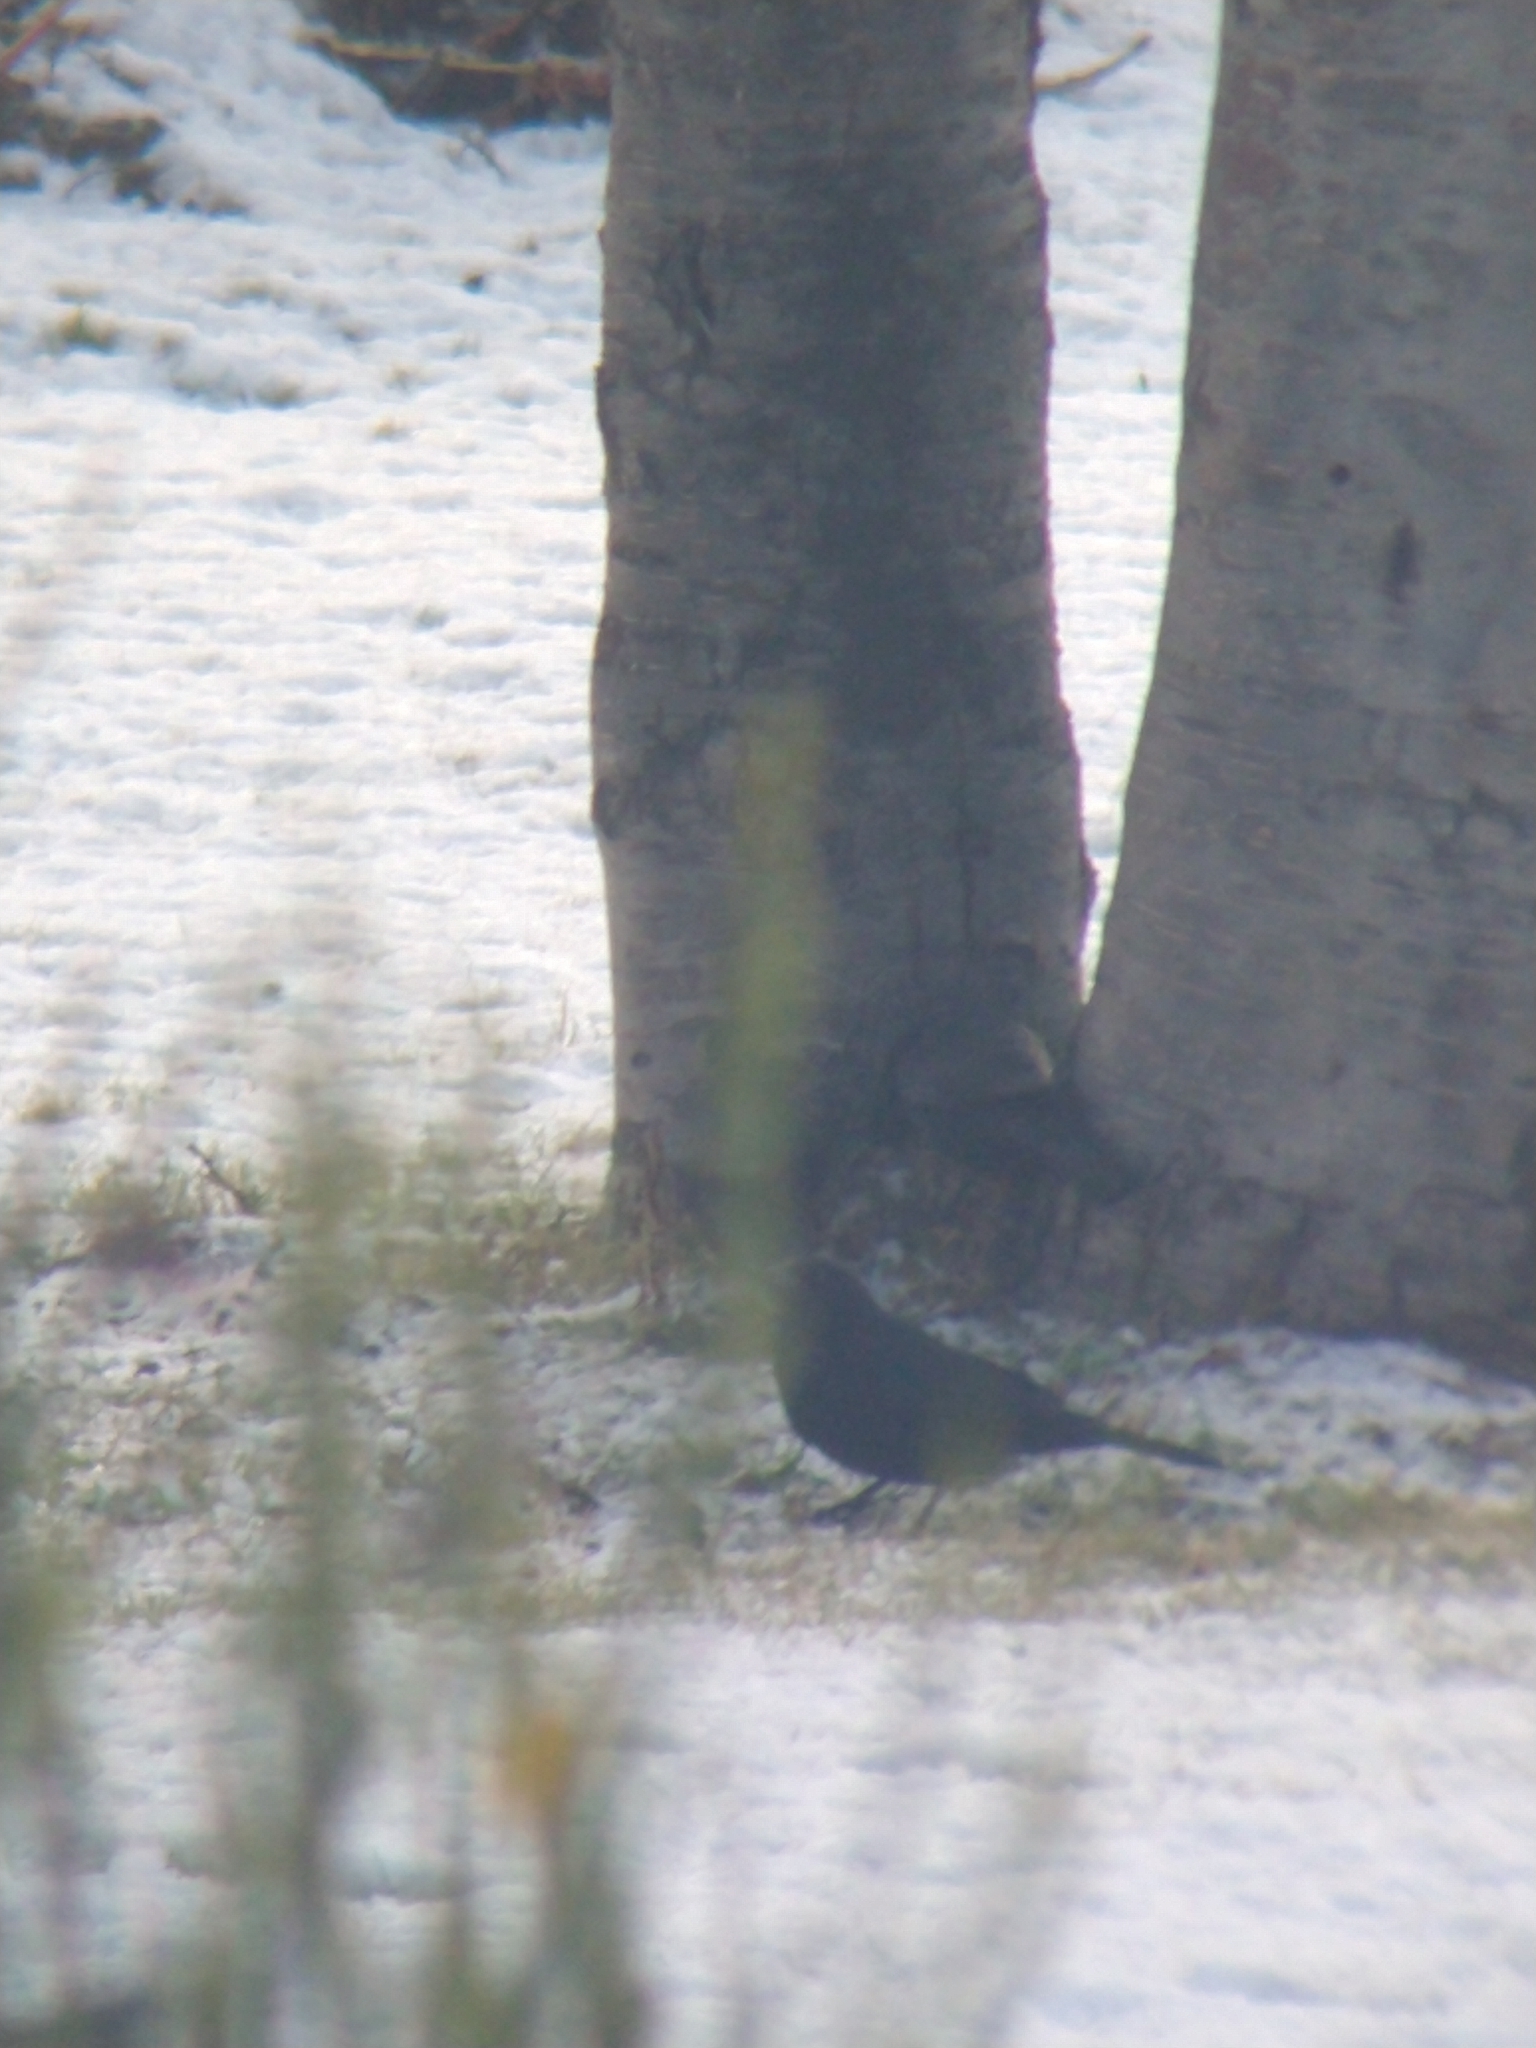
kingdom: Animalia
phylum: Chordata
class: Aves
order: Passeriformes
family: Icteridae
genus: Curaeus
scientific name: Curaeus curaeus
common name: Austral blackbird
